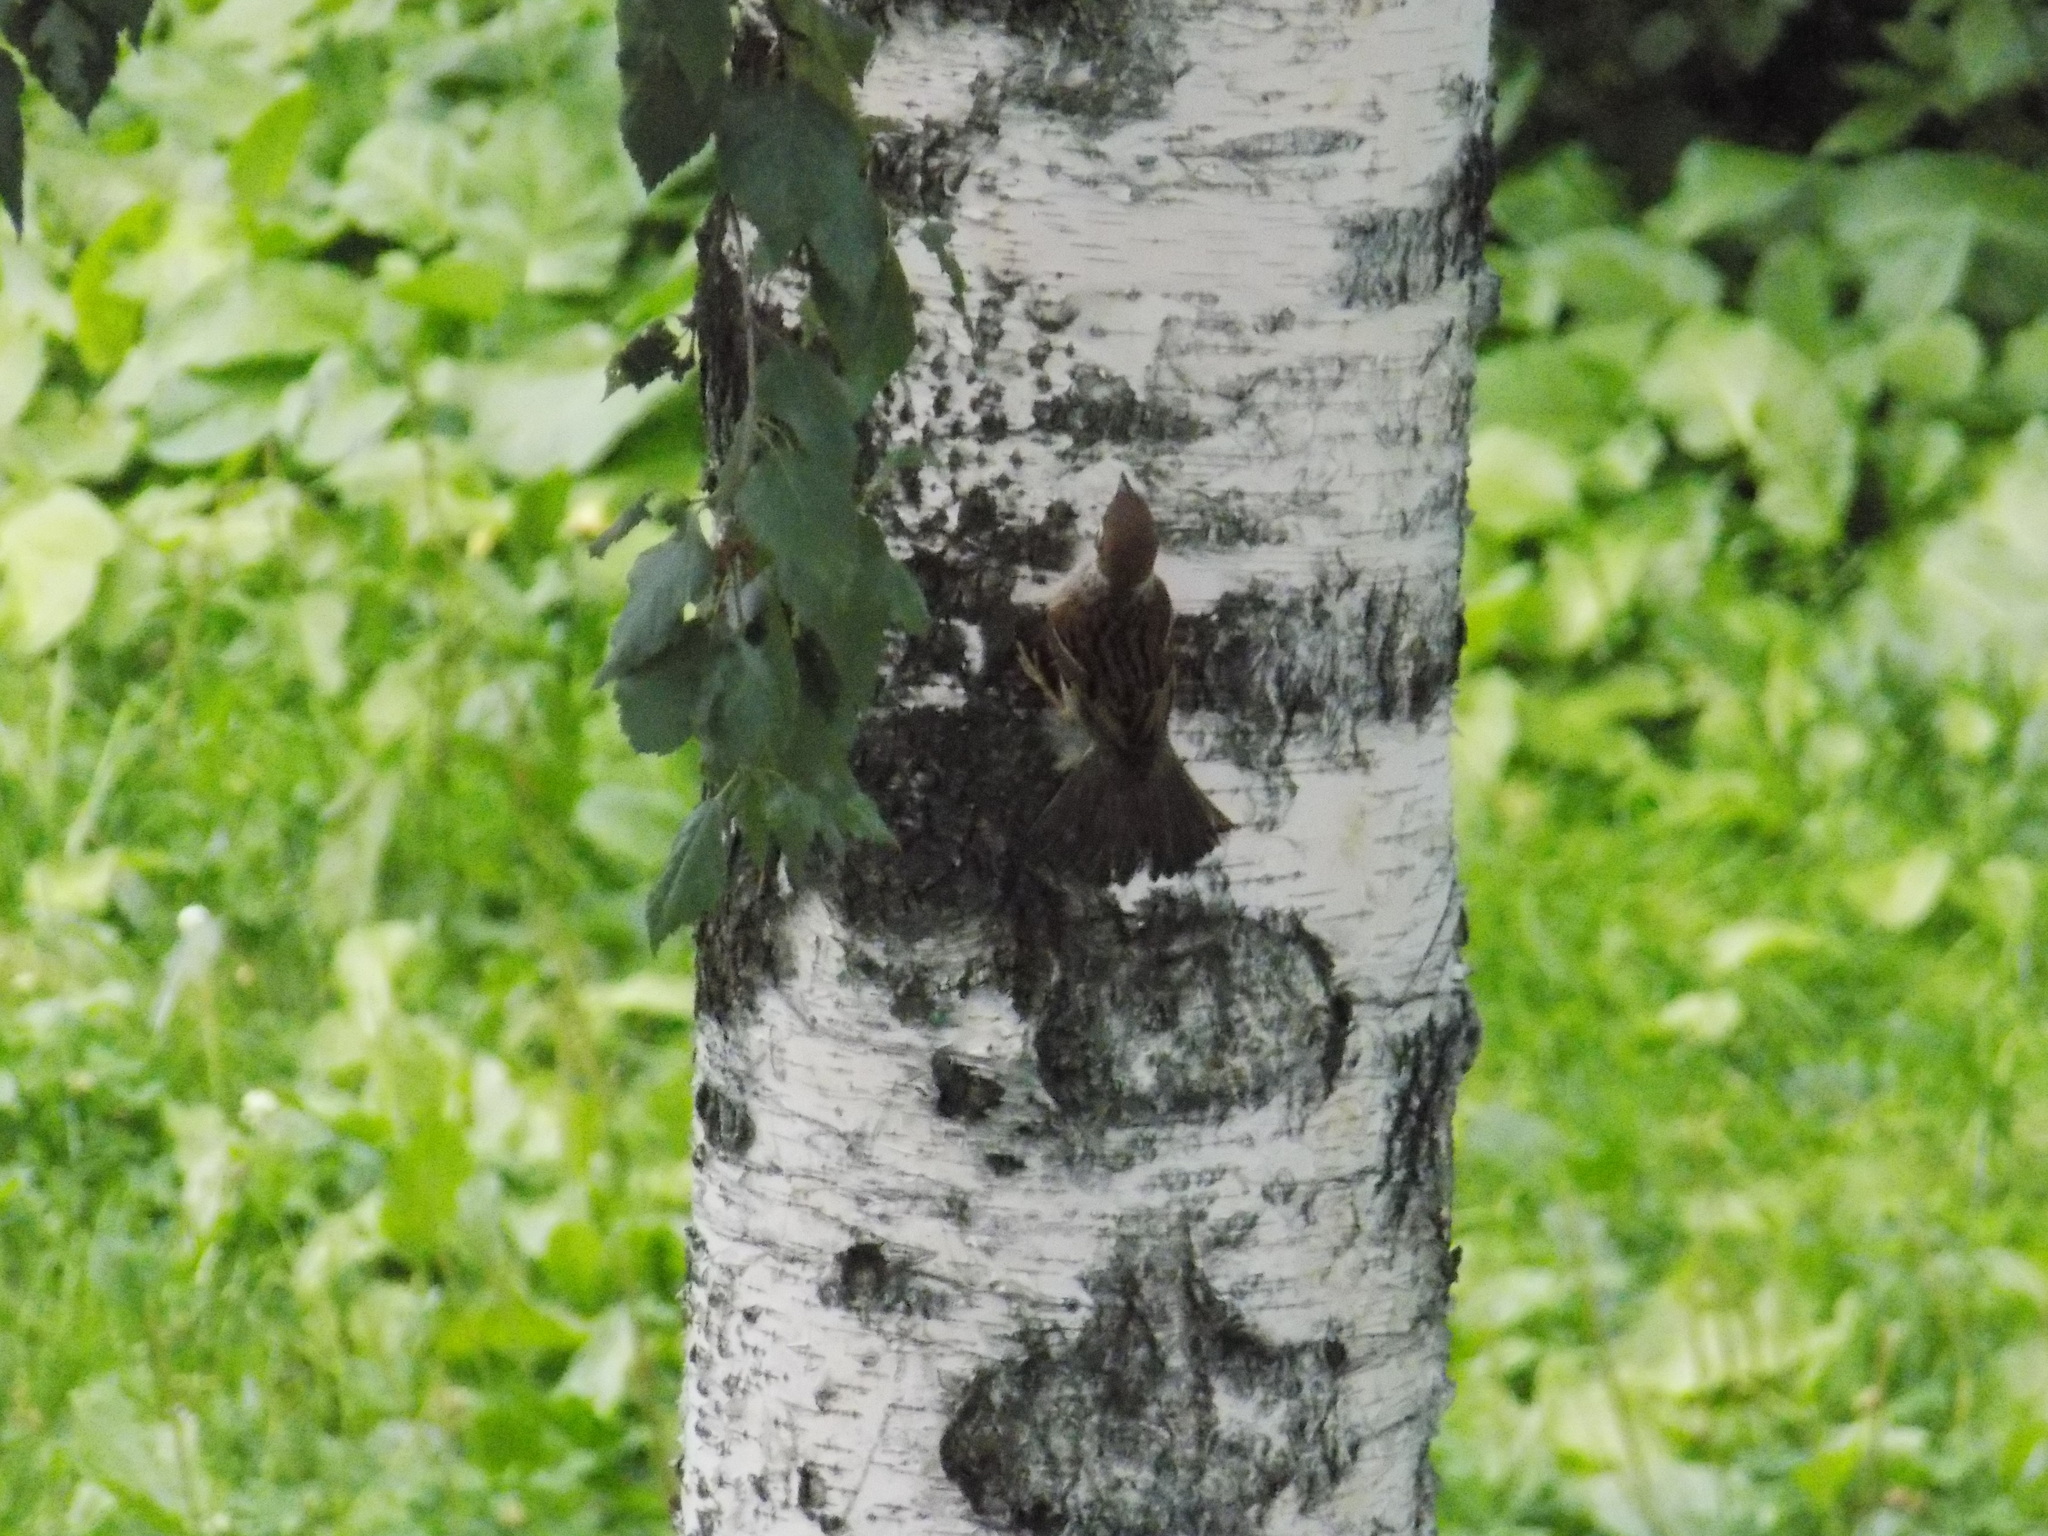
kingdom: Animalia
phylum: Chordata
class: Aves
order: Passeriformes
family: Passeridae
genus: Passer
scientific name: Passer montanus
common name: Eurasian tree sparrow
